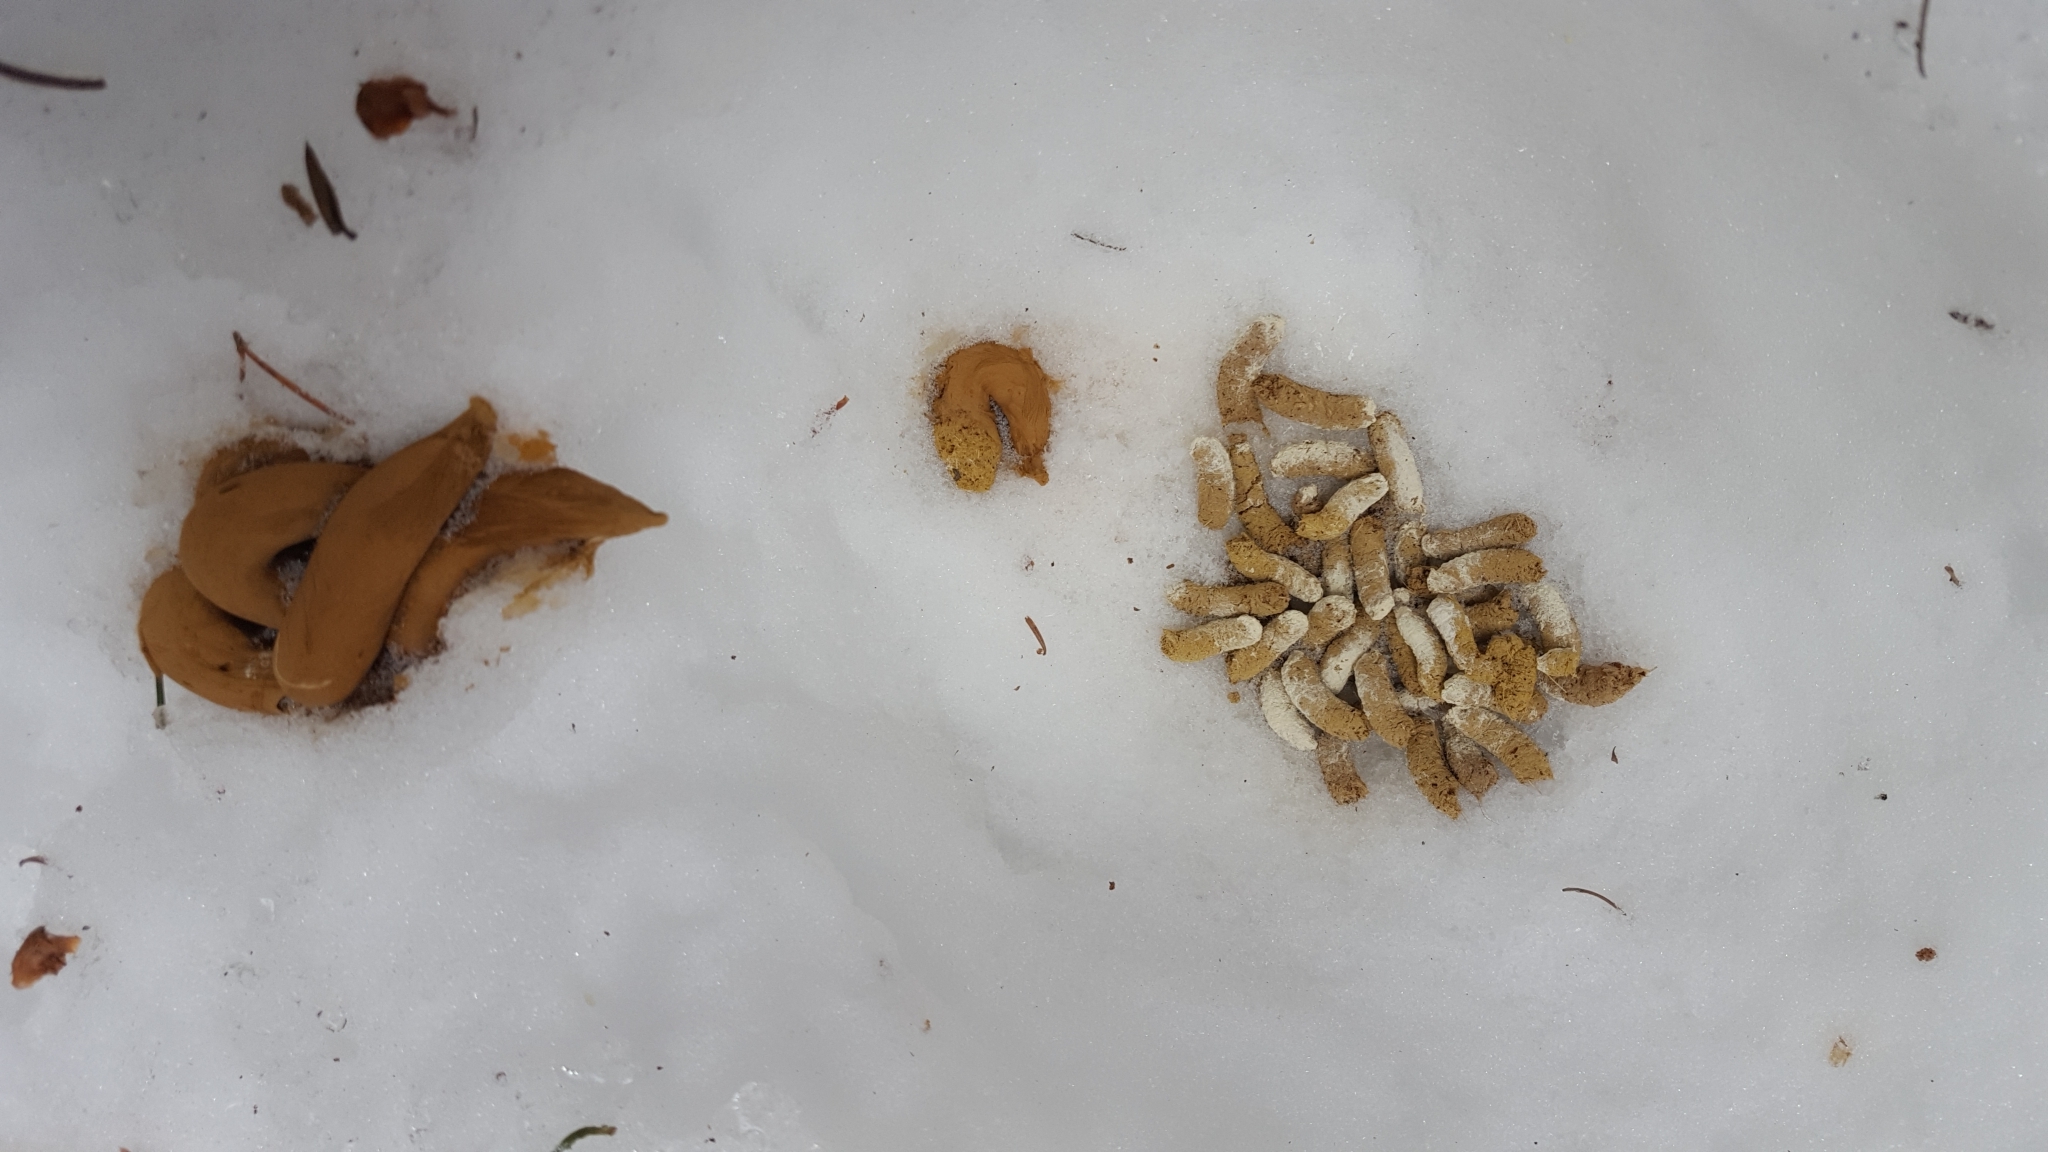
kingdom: Animalia
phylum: Chordata
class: Aves
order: Galliformes
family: Phasianidae
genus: Bonasa
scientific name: Bonasa umbellus
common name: Ruffed grouse
